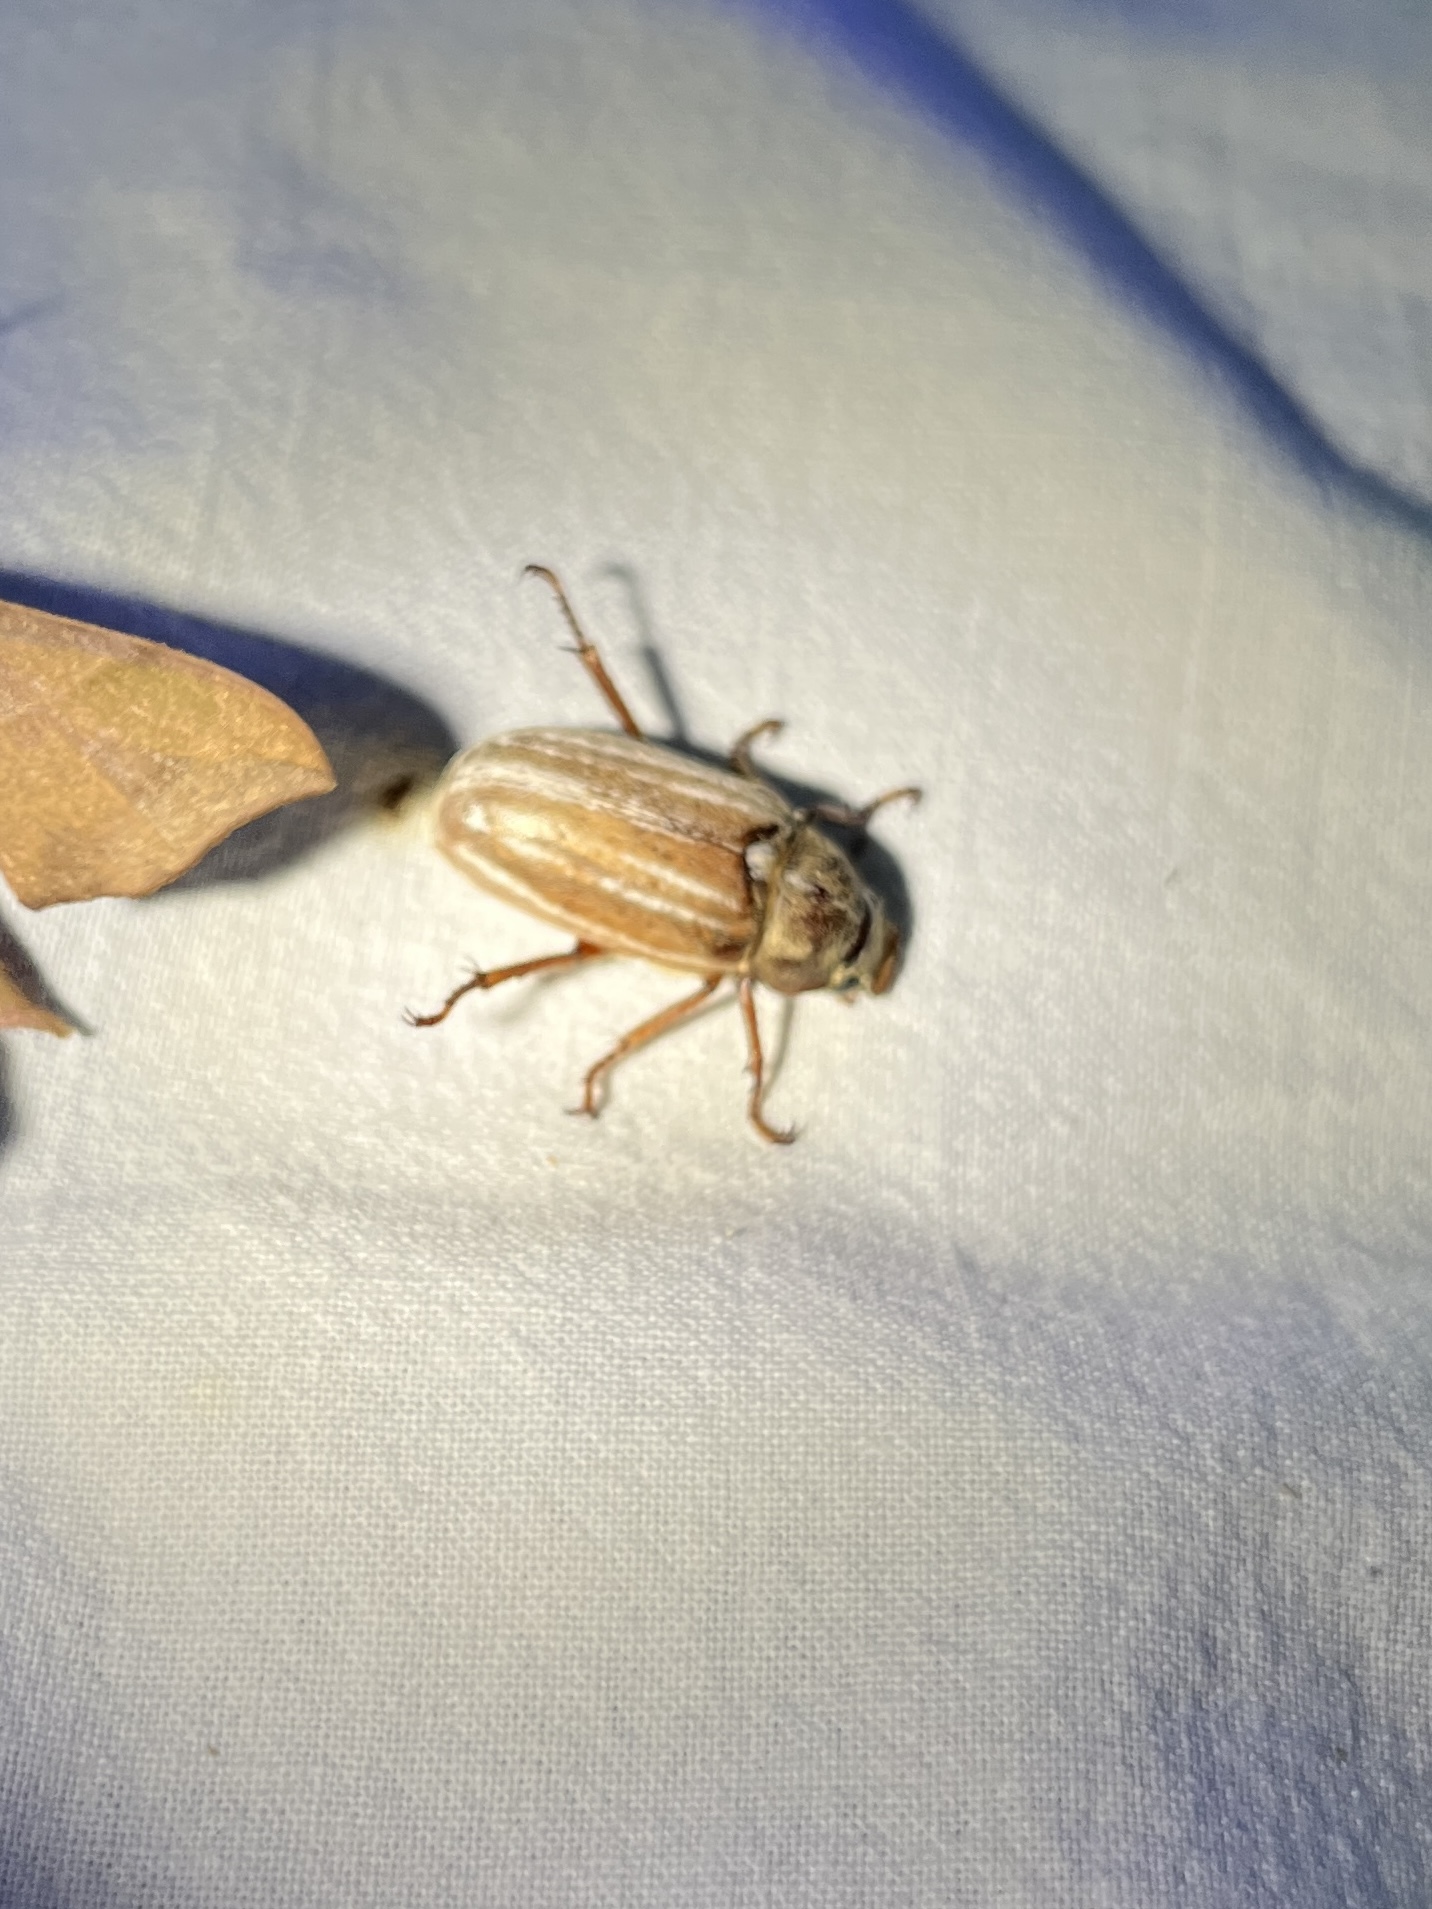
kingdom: Animalia
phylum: Arthropoda
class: Insecta
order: Coleoptera
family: Scarabaeidae
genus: Polyphylla
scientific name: Polyphylla occidentalis
